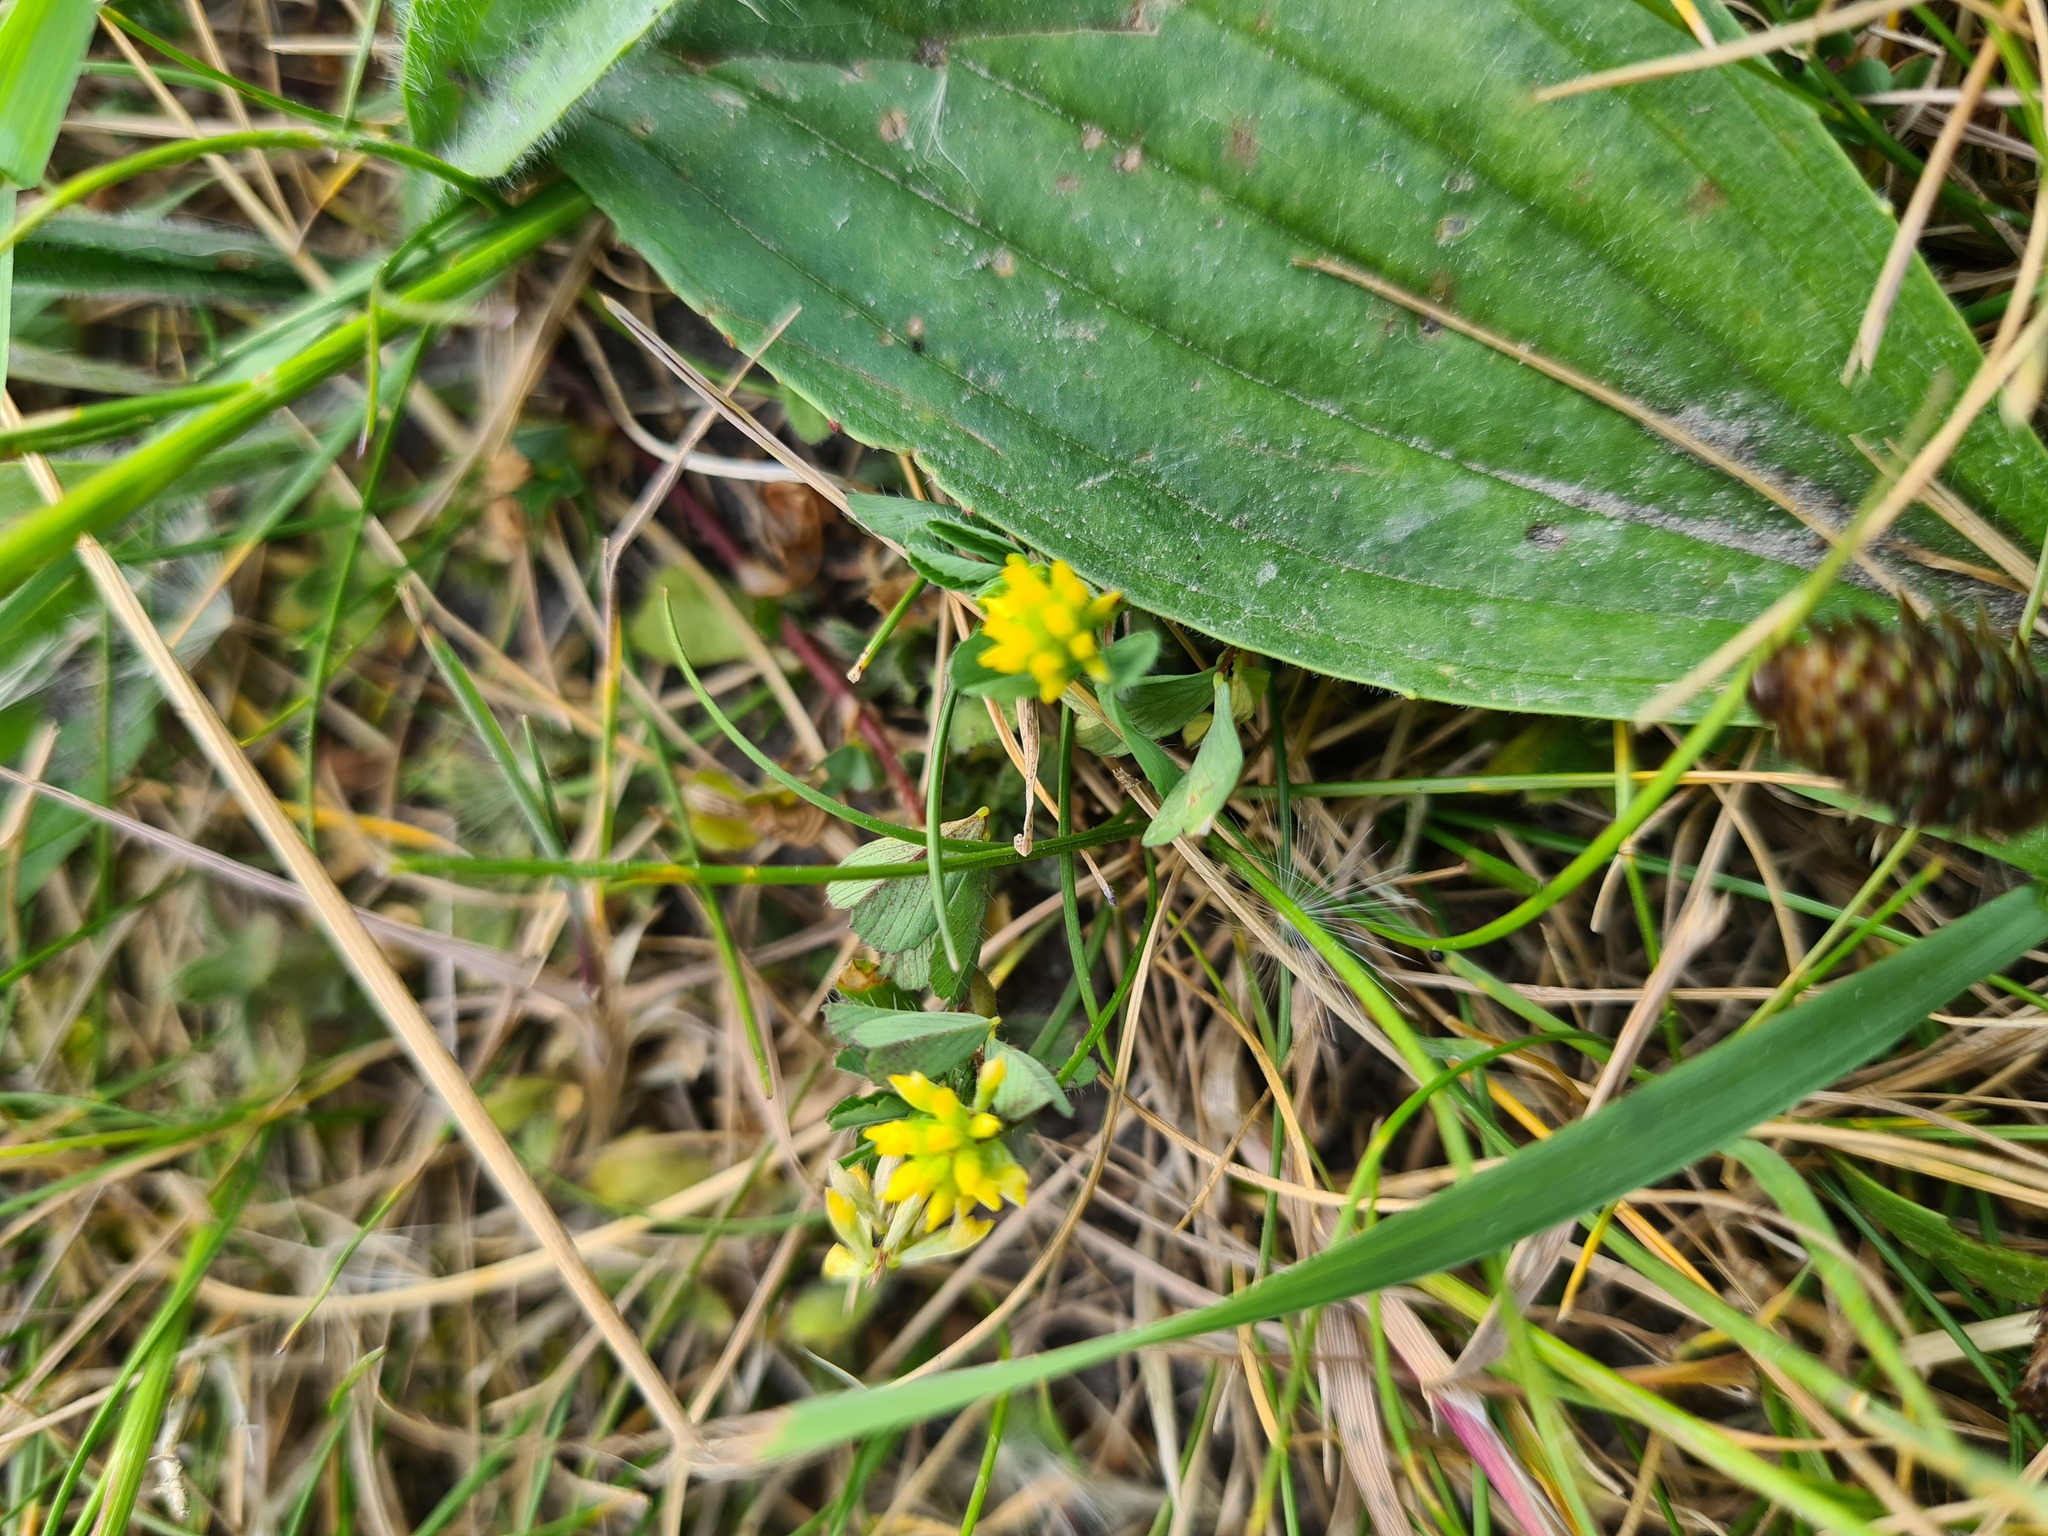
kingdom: Plantae
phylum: Tracheophyta
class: Magnoliopsida
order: Fabales
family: Fabaceae
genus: Trifolium
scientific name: Trifolium dubium
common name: Suckling clover
